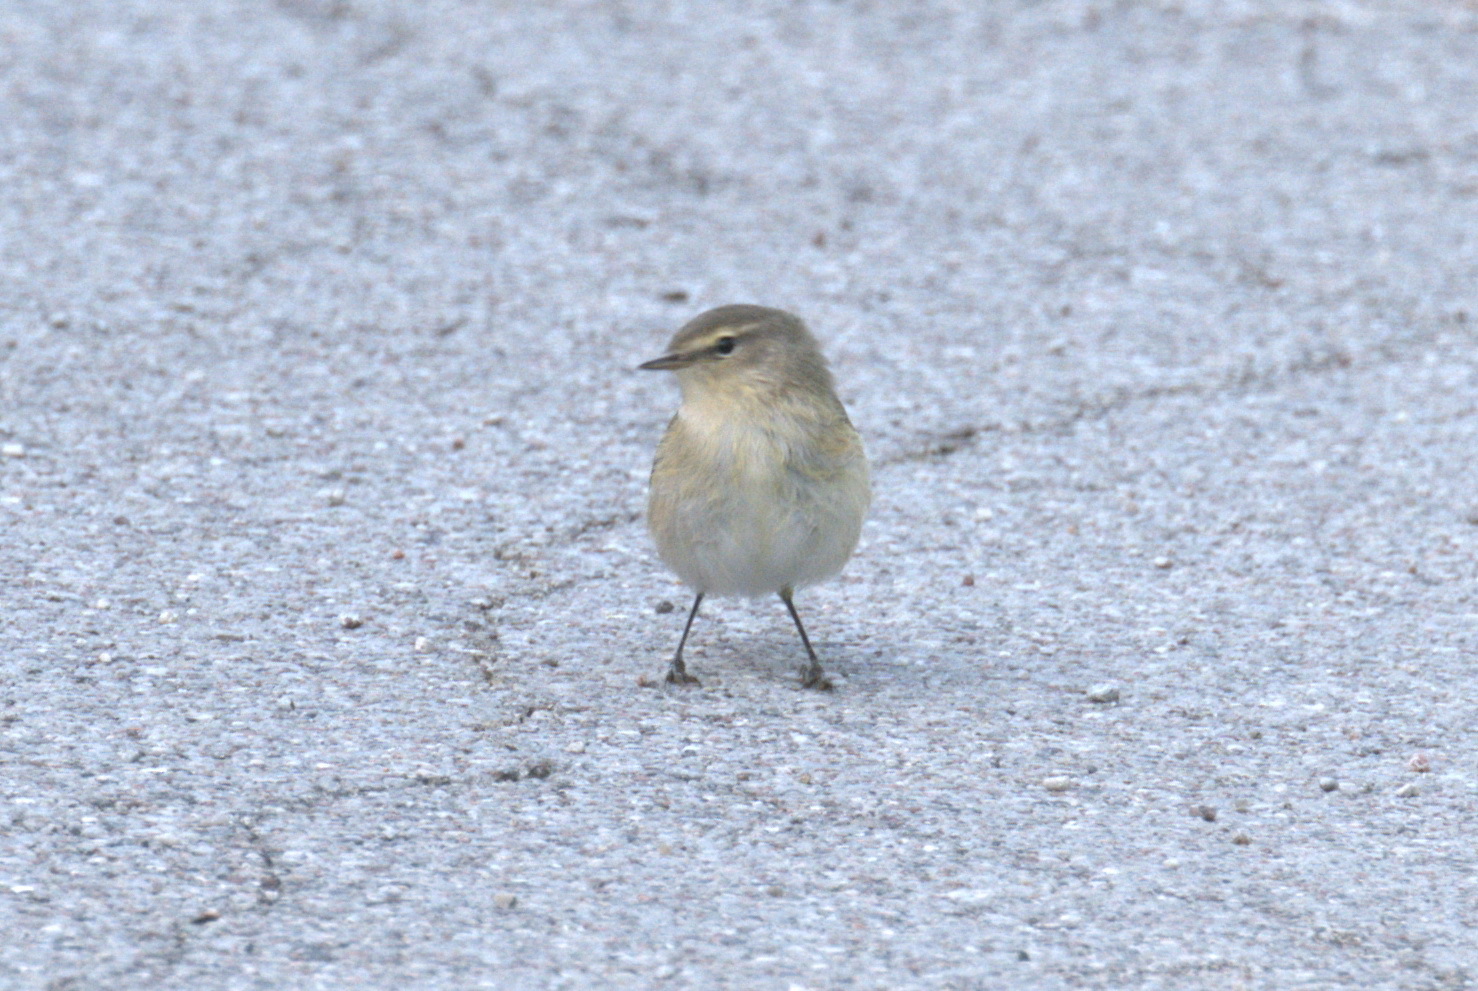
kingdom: Animalia
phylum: Chordata
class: Aves
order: Passeriformes
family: Phylloscopidae
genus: Phylloscopus
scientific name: Phylloscopus collybita
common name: Common chiffchaff
